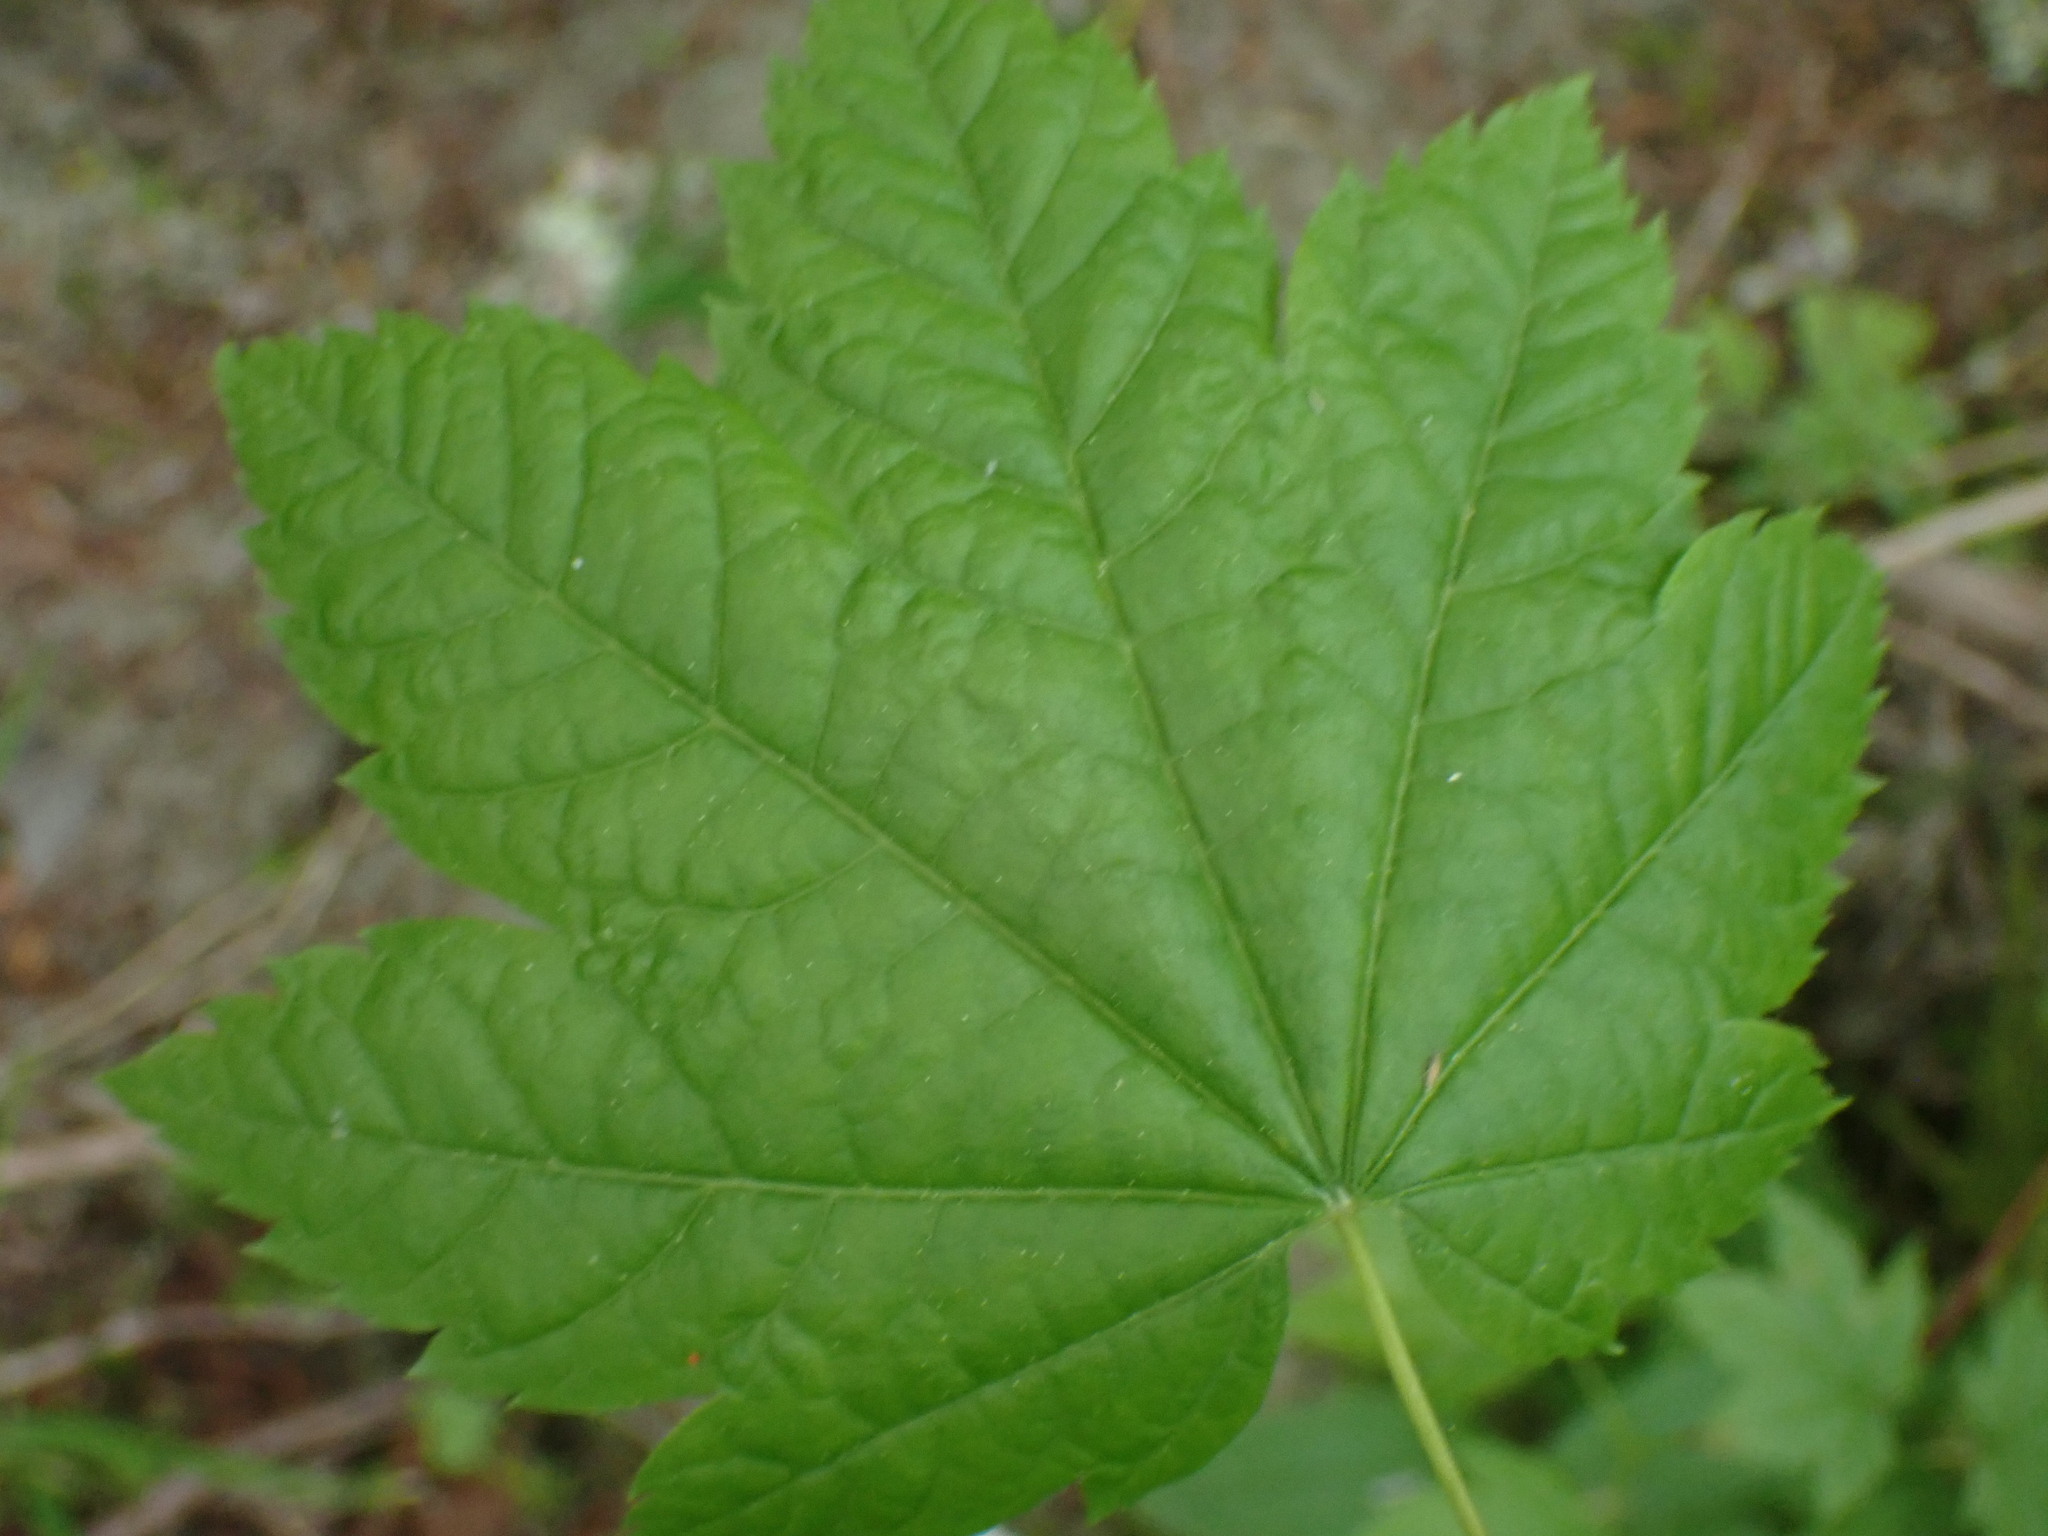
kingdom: Plantae
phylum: Tracheophyta
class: Magnoliopsida
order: Sapindales
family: Sapindaceae
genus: Acer
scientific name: Acer circinatum
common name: Vine maple
